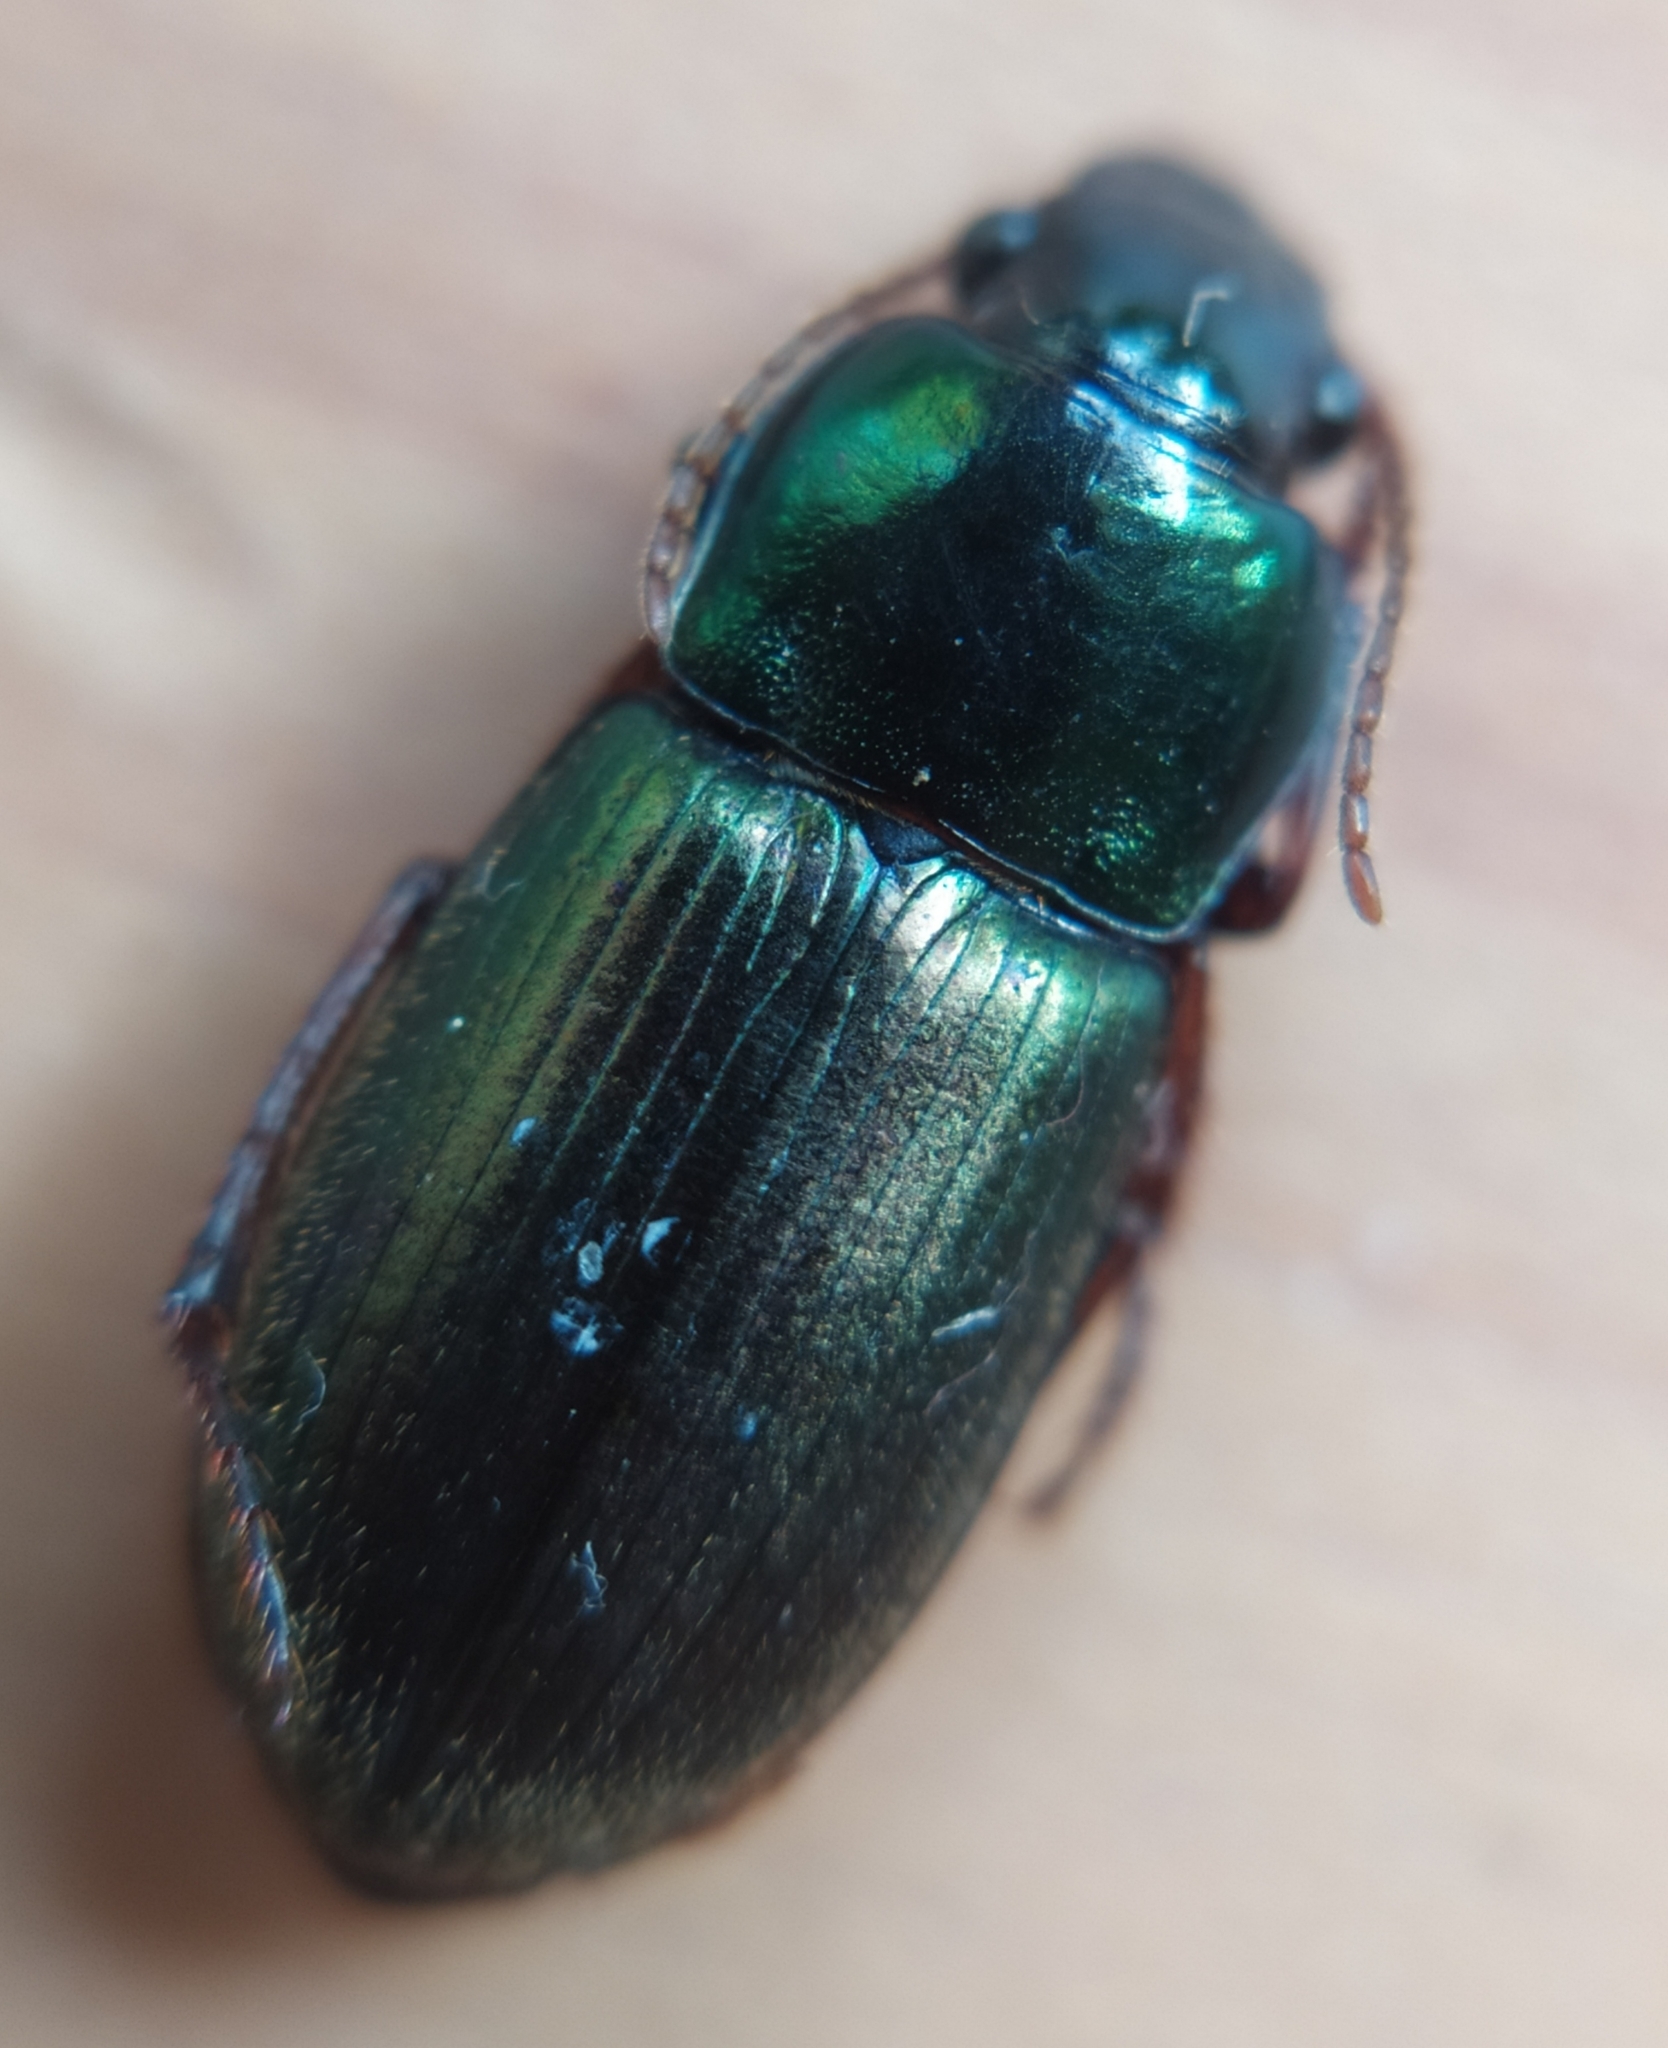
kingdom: Animalia
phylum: Arthropoda
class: Insecta
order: Coleoptera
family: Carabidae
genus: Harpalus
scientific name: Harpalus affinis
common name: Polychrome harp ground beetle
